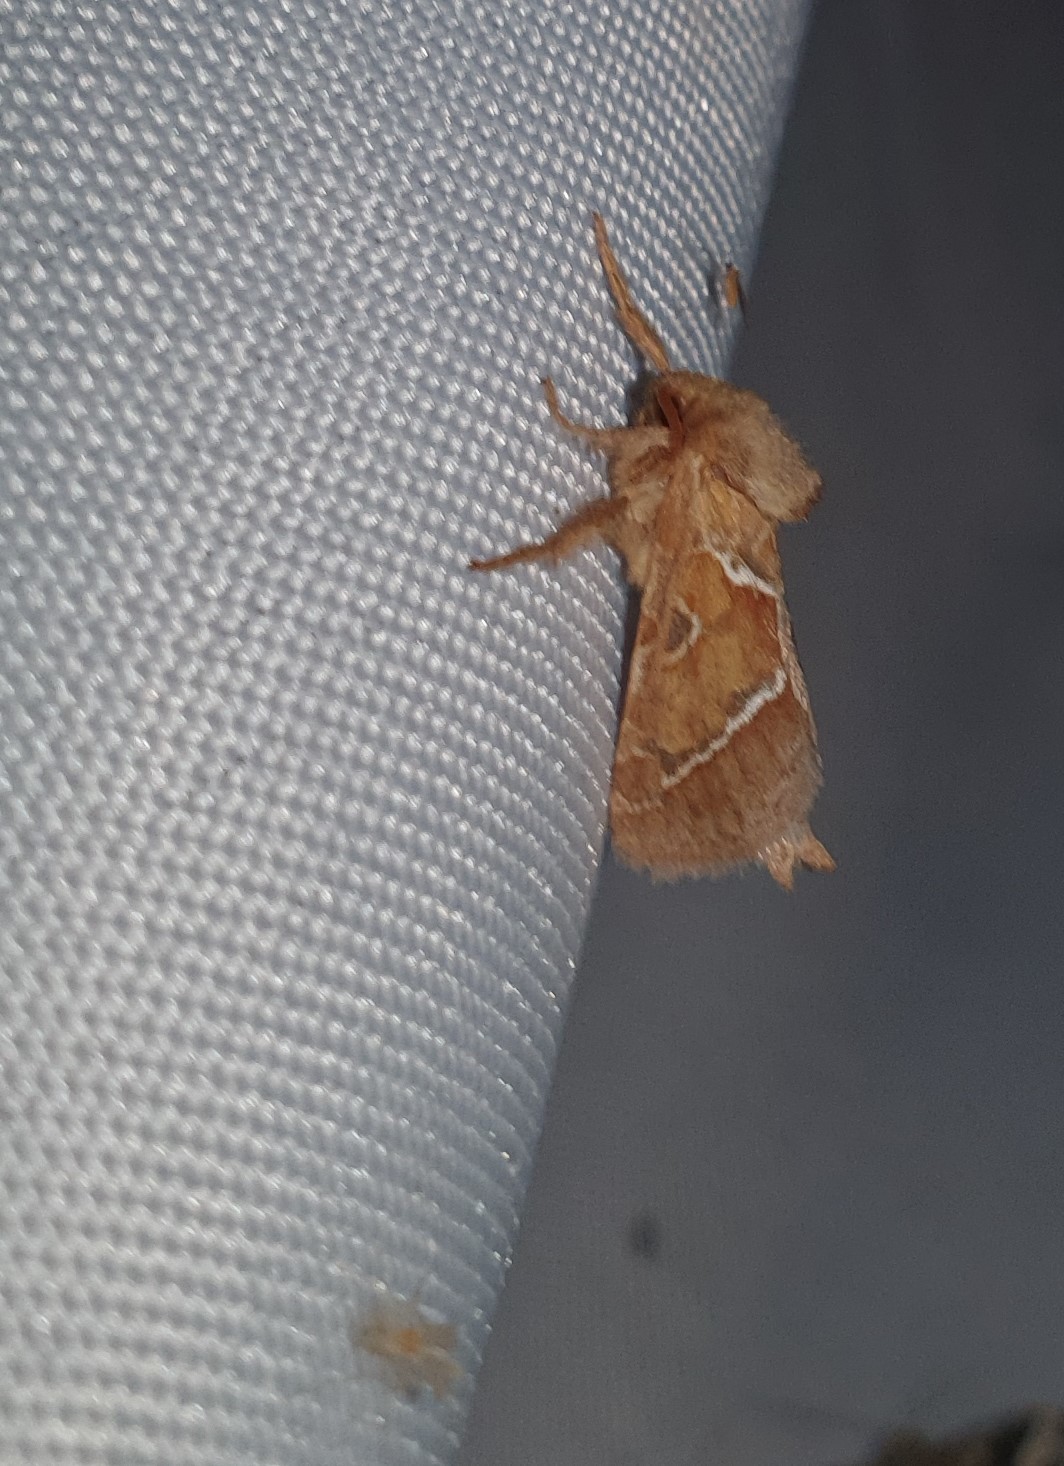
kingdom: Animalia
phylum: Arthropoda
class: Insecta
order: Lepidoptera
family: Hepialidae
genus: Triodia
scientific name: Triodia sylvina
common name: Orange swift
